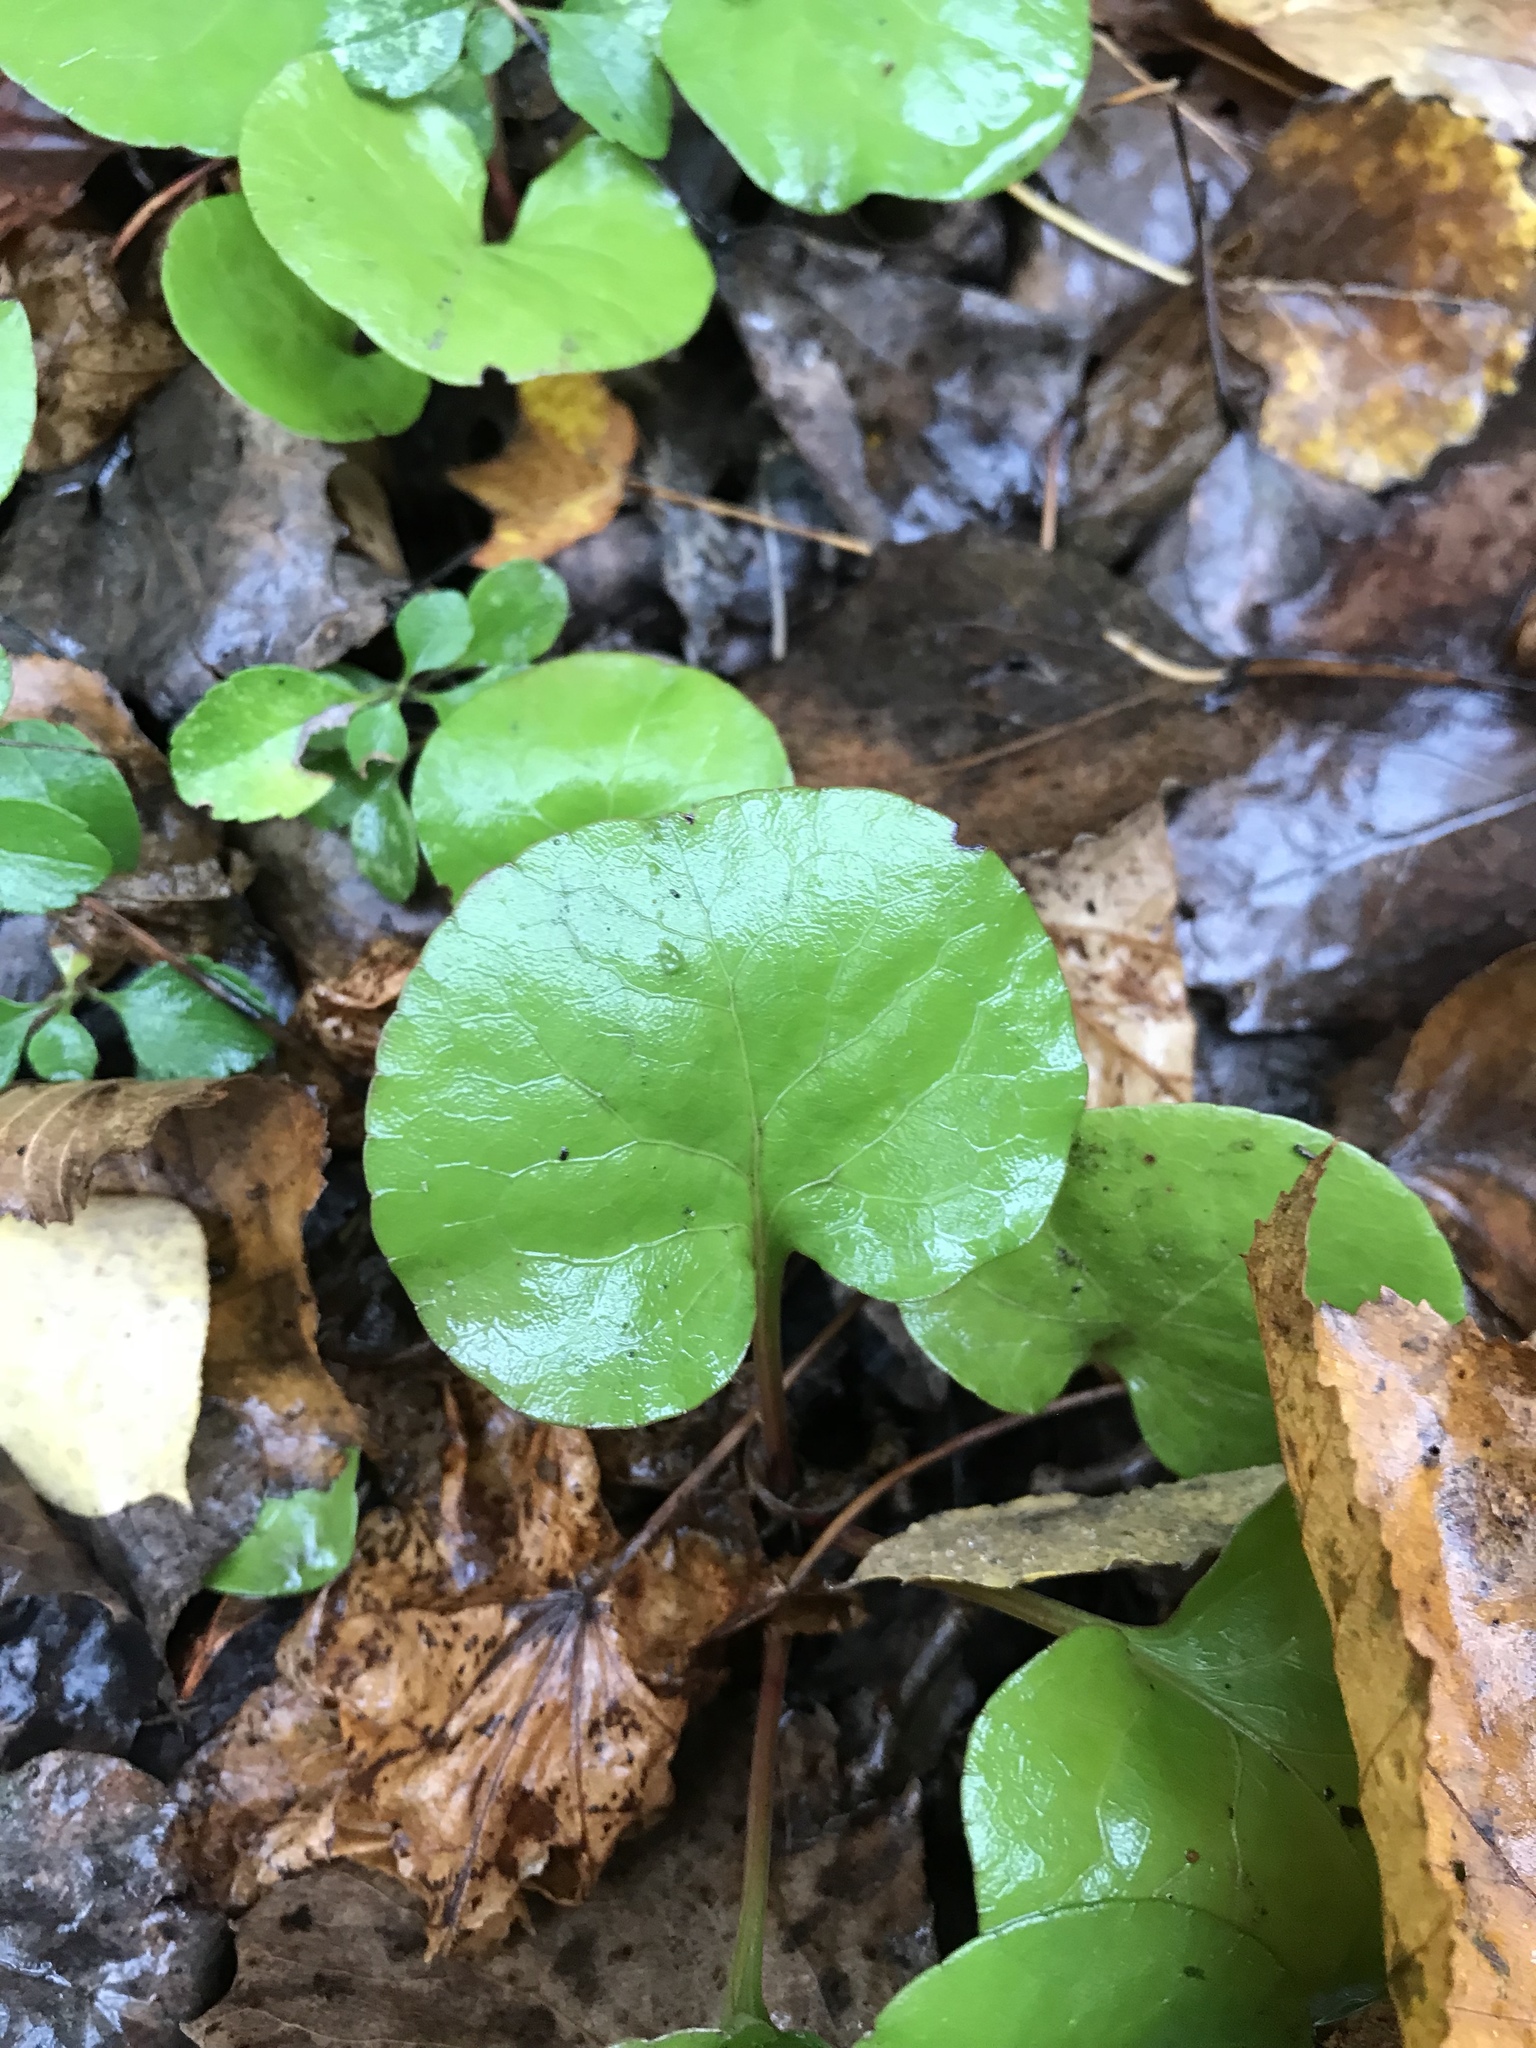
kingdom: Plantae
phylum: Tracheophyta
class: Magnoliopsida
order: Ericales
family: Ericaceae
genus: Pyrola
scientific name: Pyrola asarifolia
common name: Bog wintergreen
